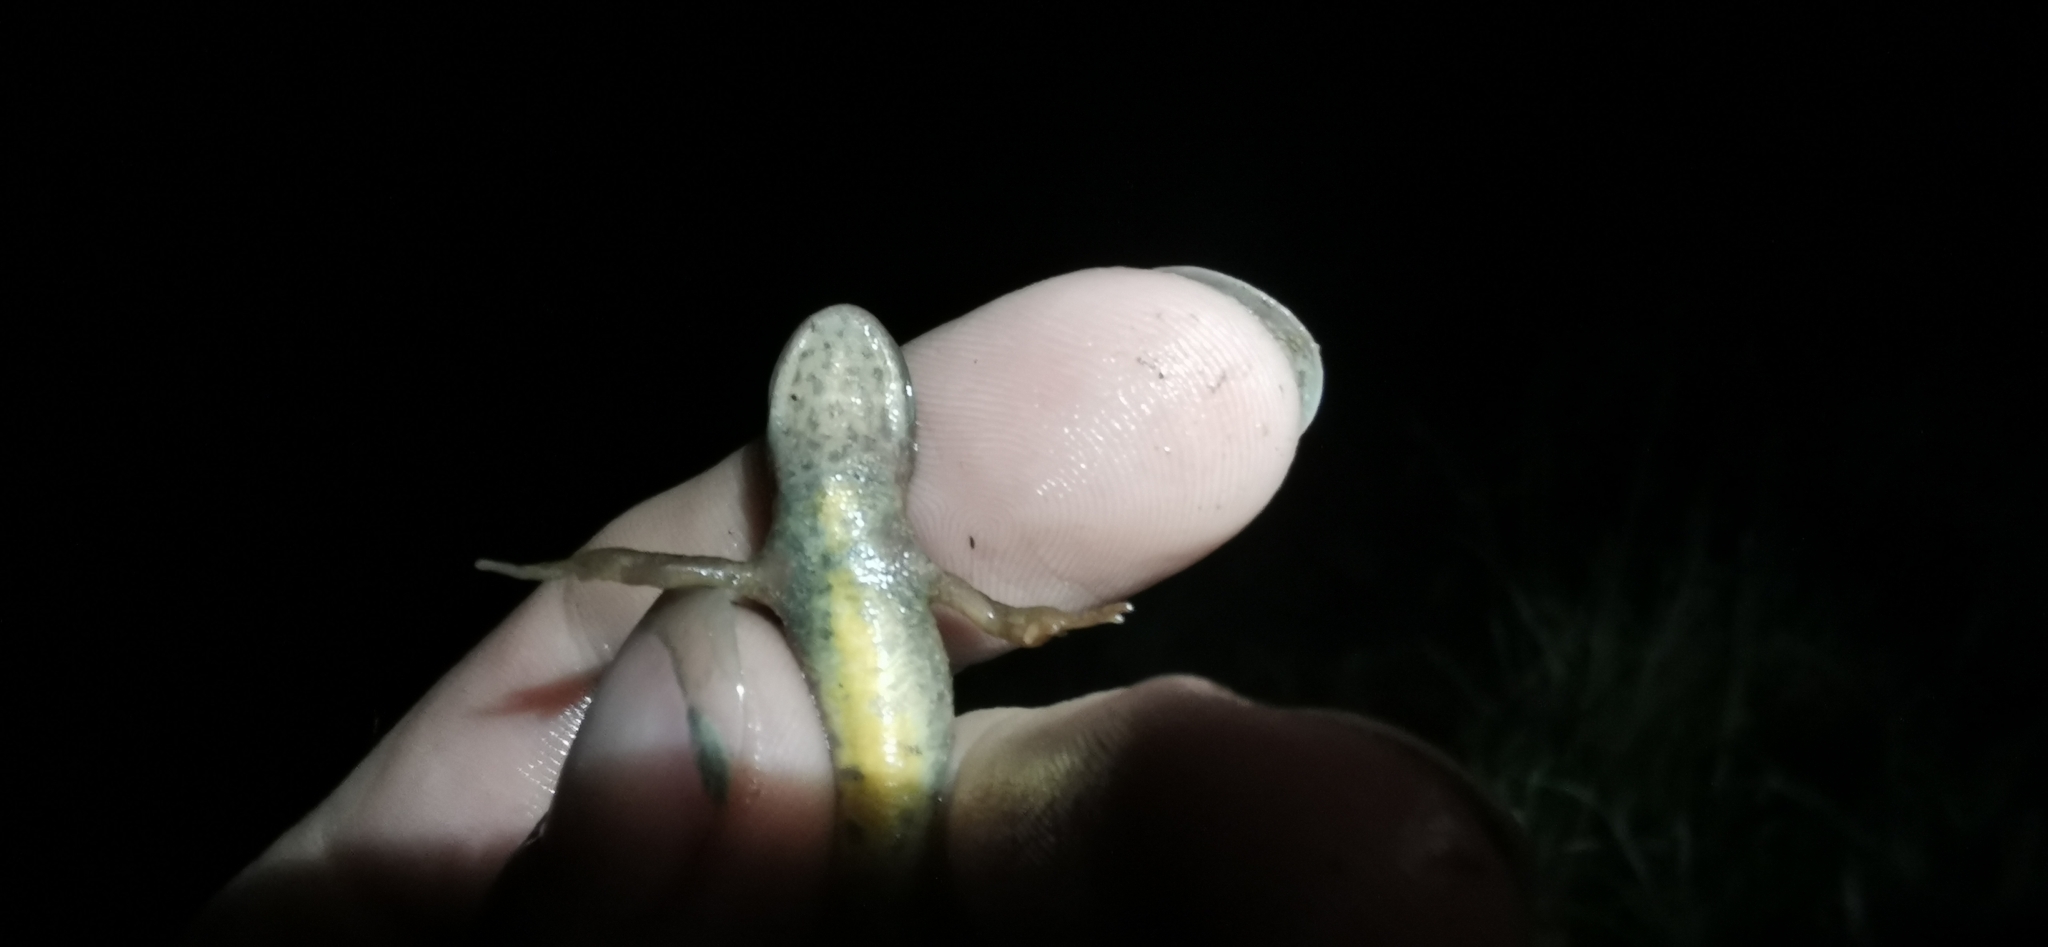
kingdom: Animalia
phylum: Chordata
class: Amphibia
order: Caudata
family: Salamandridae
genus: Lissotriton
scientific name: Lissotriton vulgaris
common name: Smooth newt
